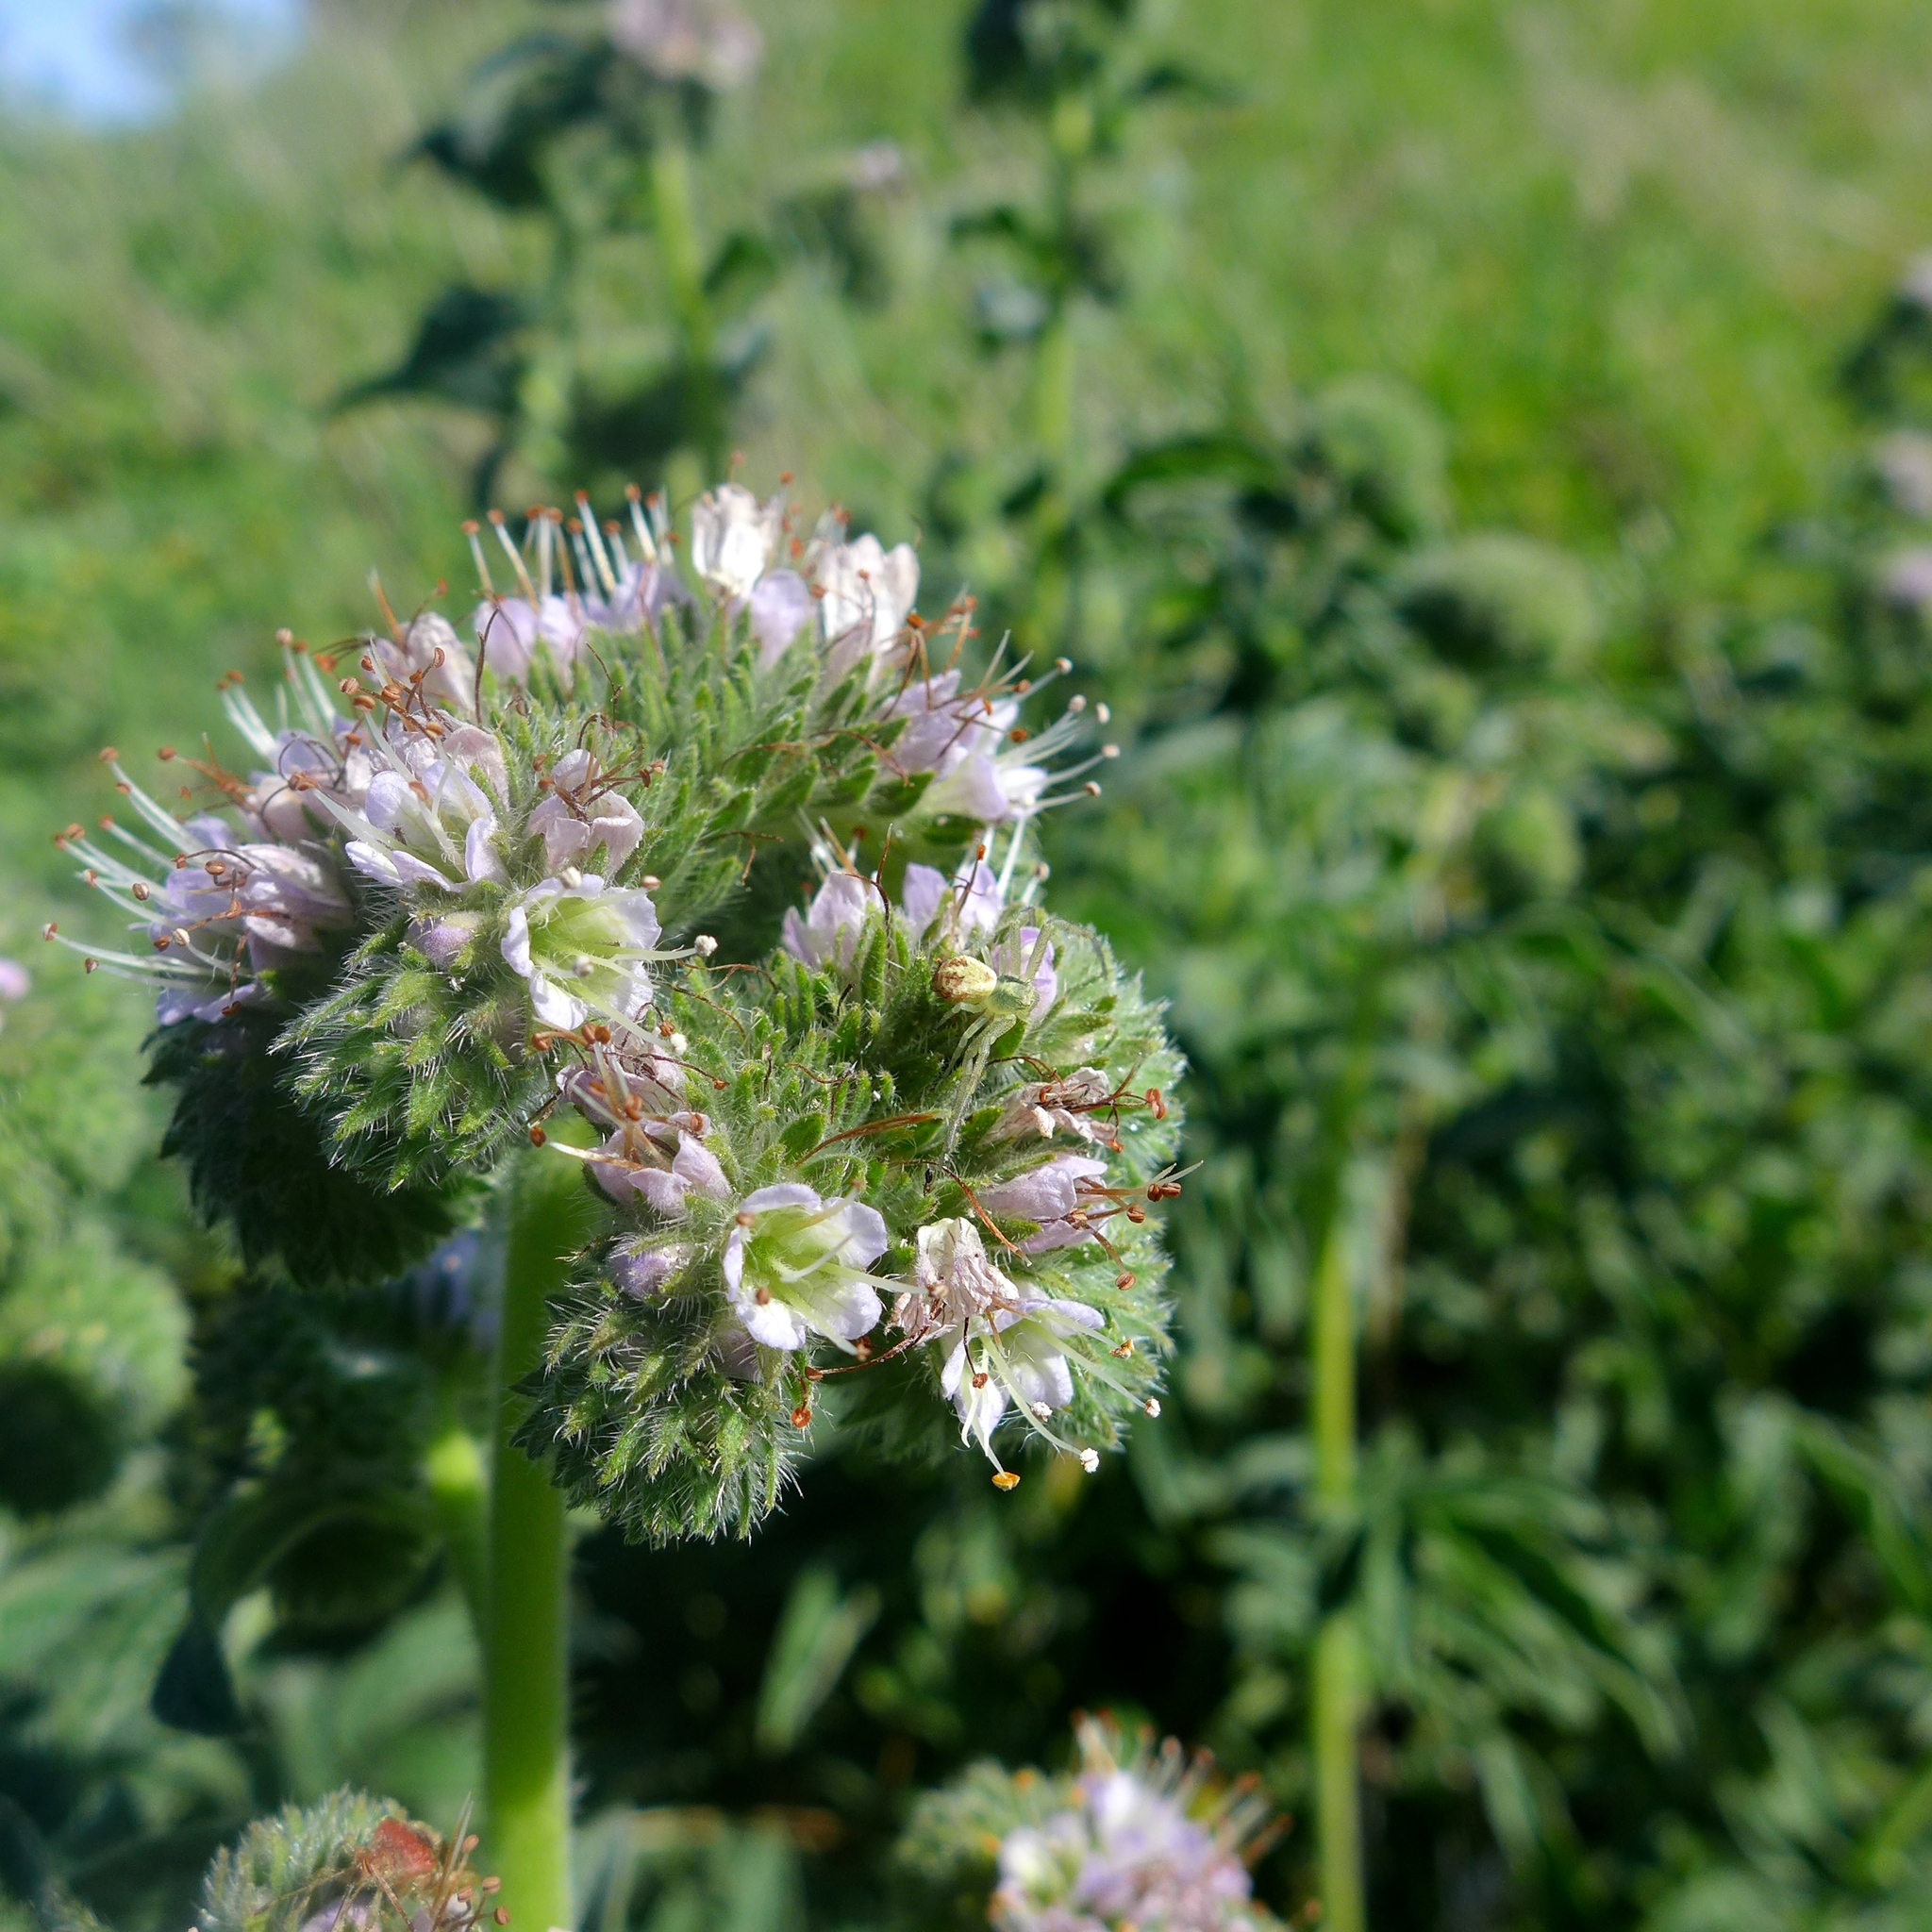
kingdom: Plantae
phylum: Tracheophyta
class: Magnoliopsida
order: Boraginales
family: Hydrophyllaceae
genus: Phacelia
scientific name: Phacelia californica
